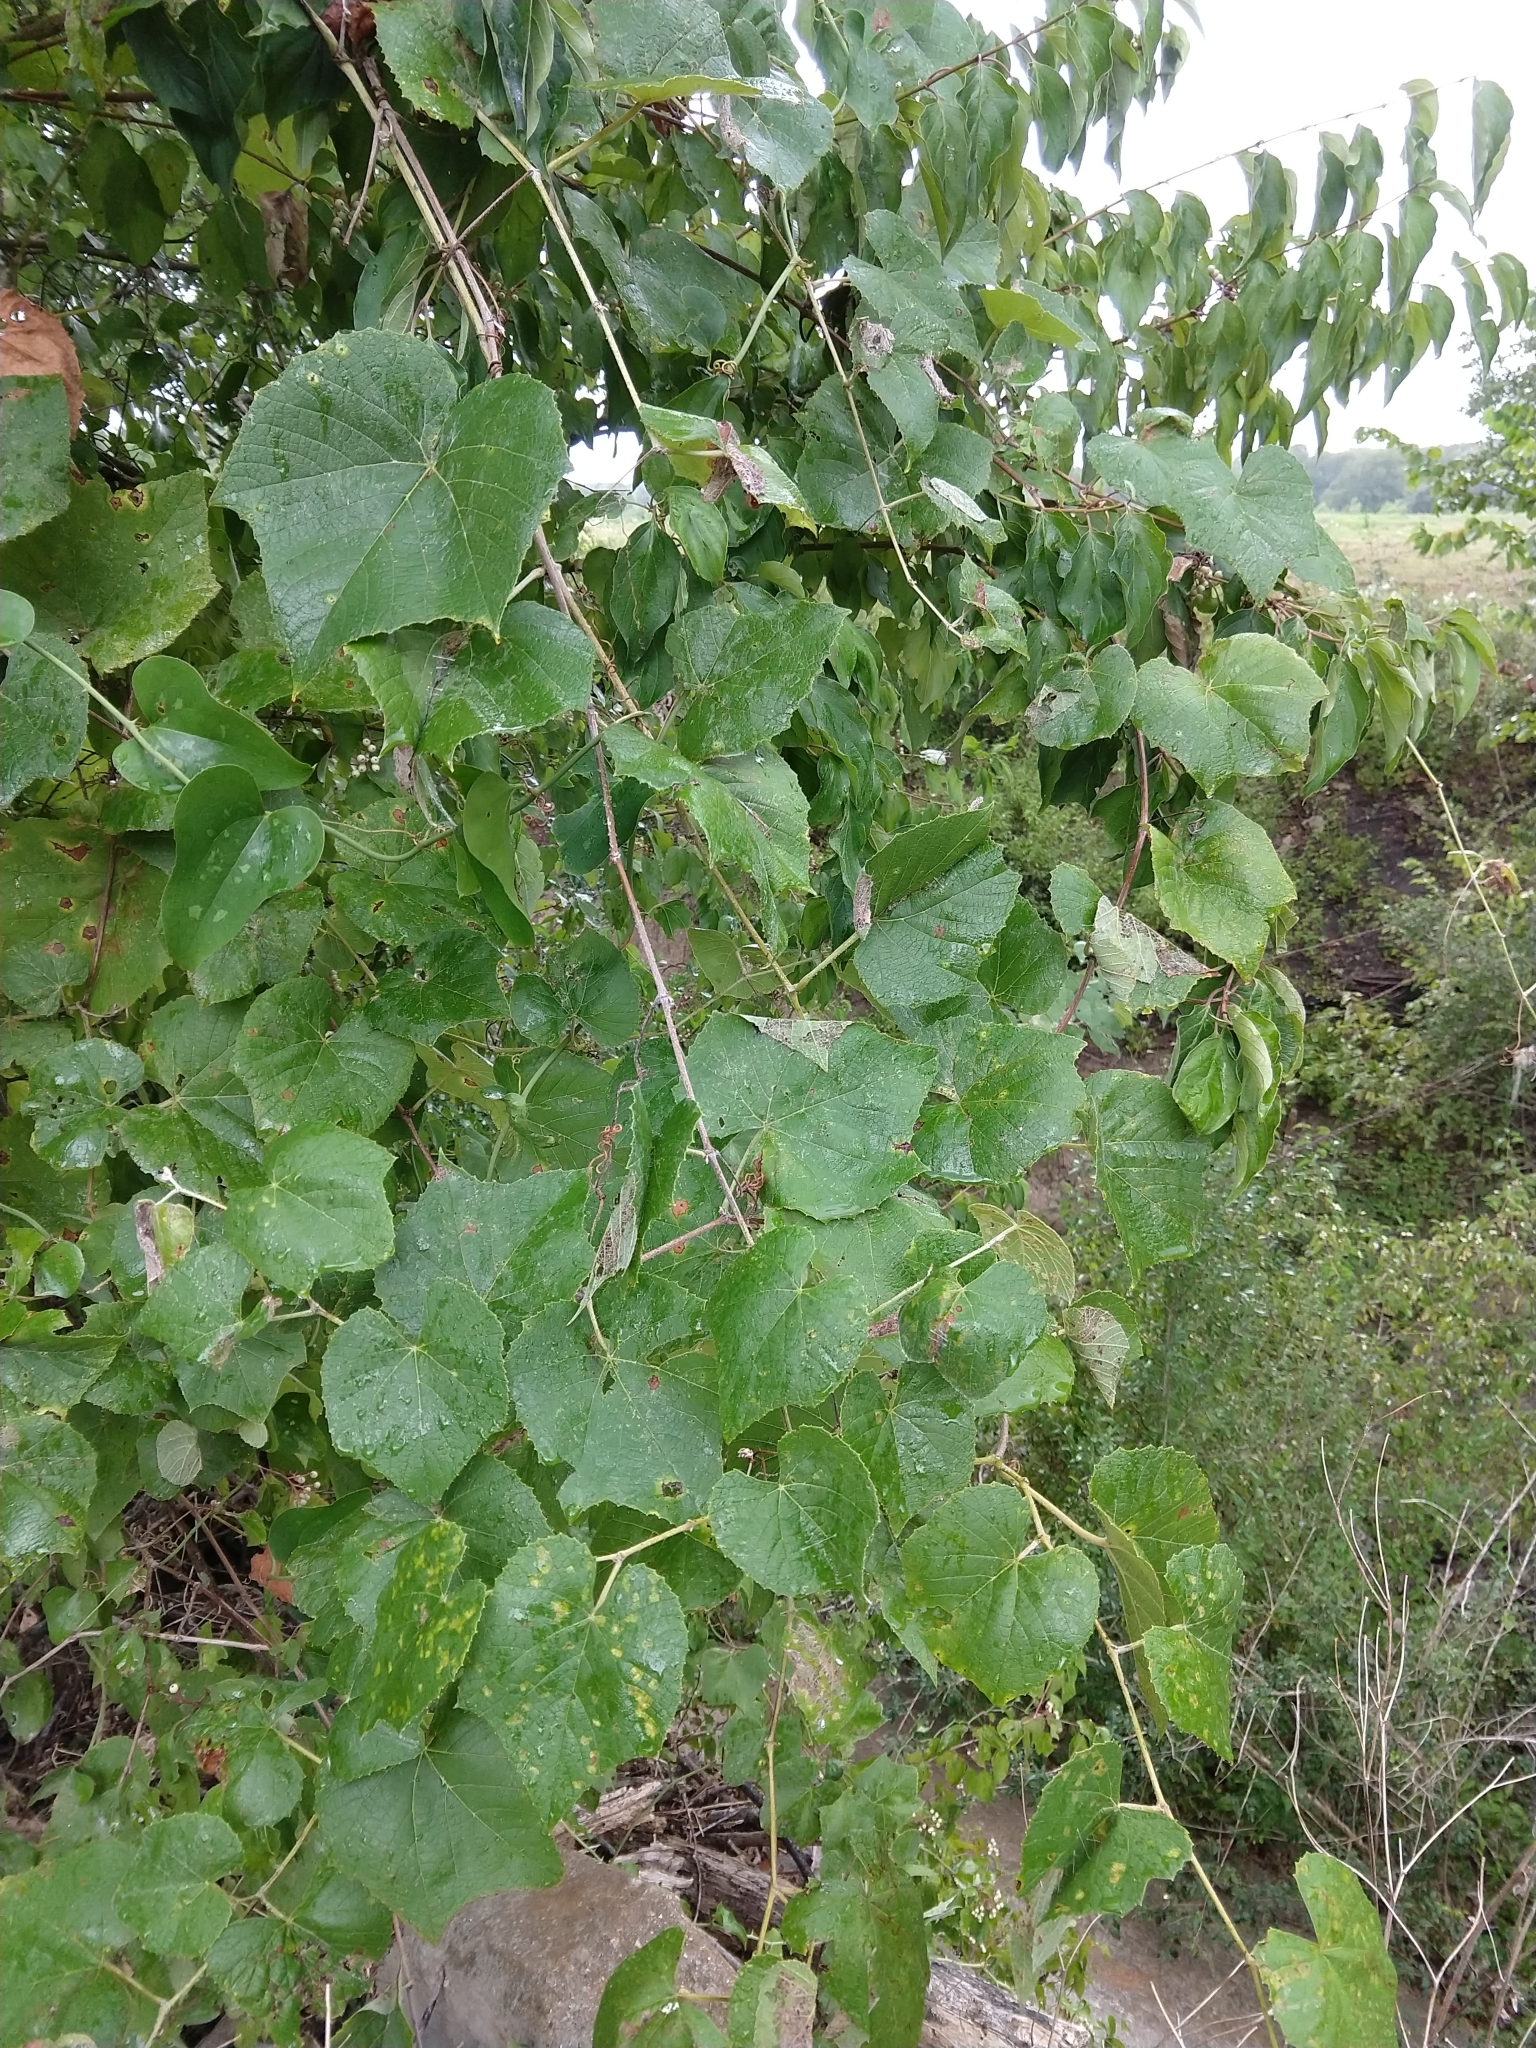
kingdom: Plantae
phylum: Tracheophyta
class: Magnoliopsida
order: Vitales
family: Vitaceae
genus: Vitis
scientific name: Vitis cinerea
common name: Ashy grape
